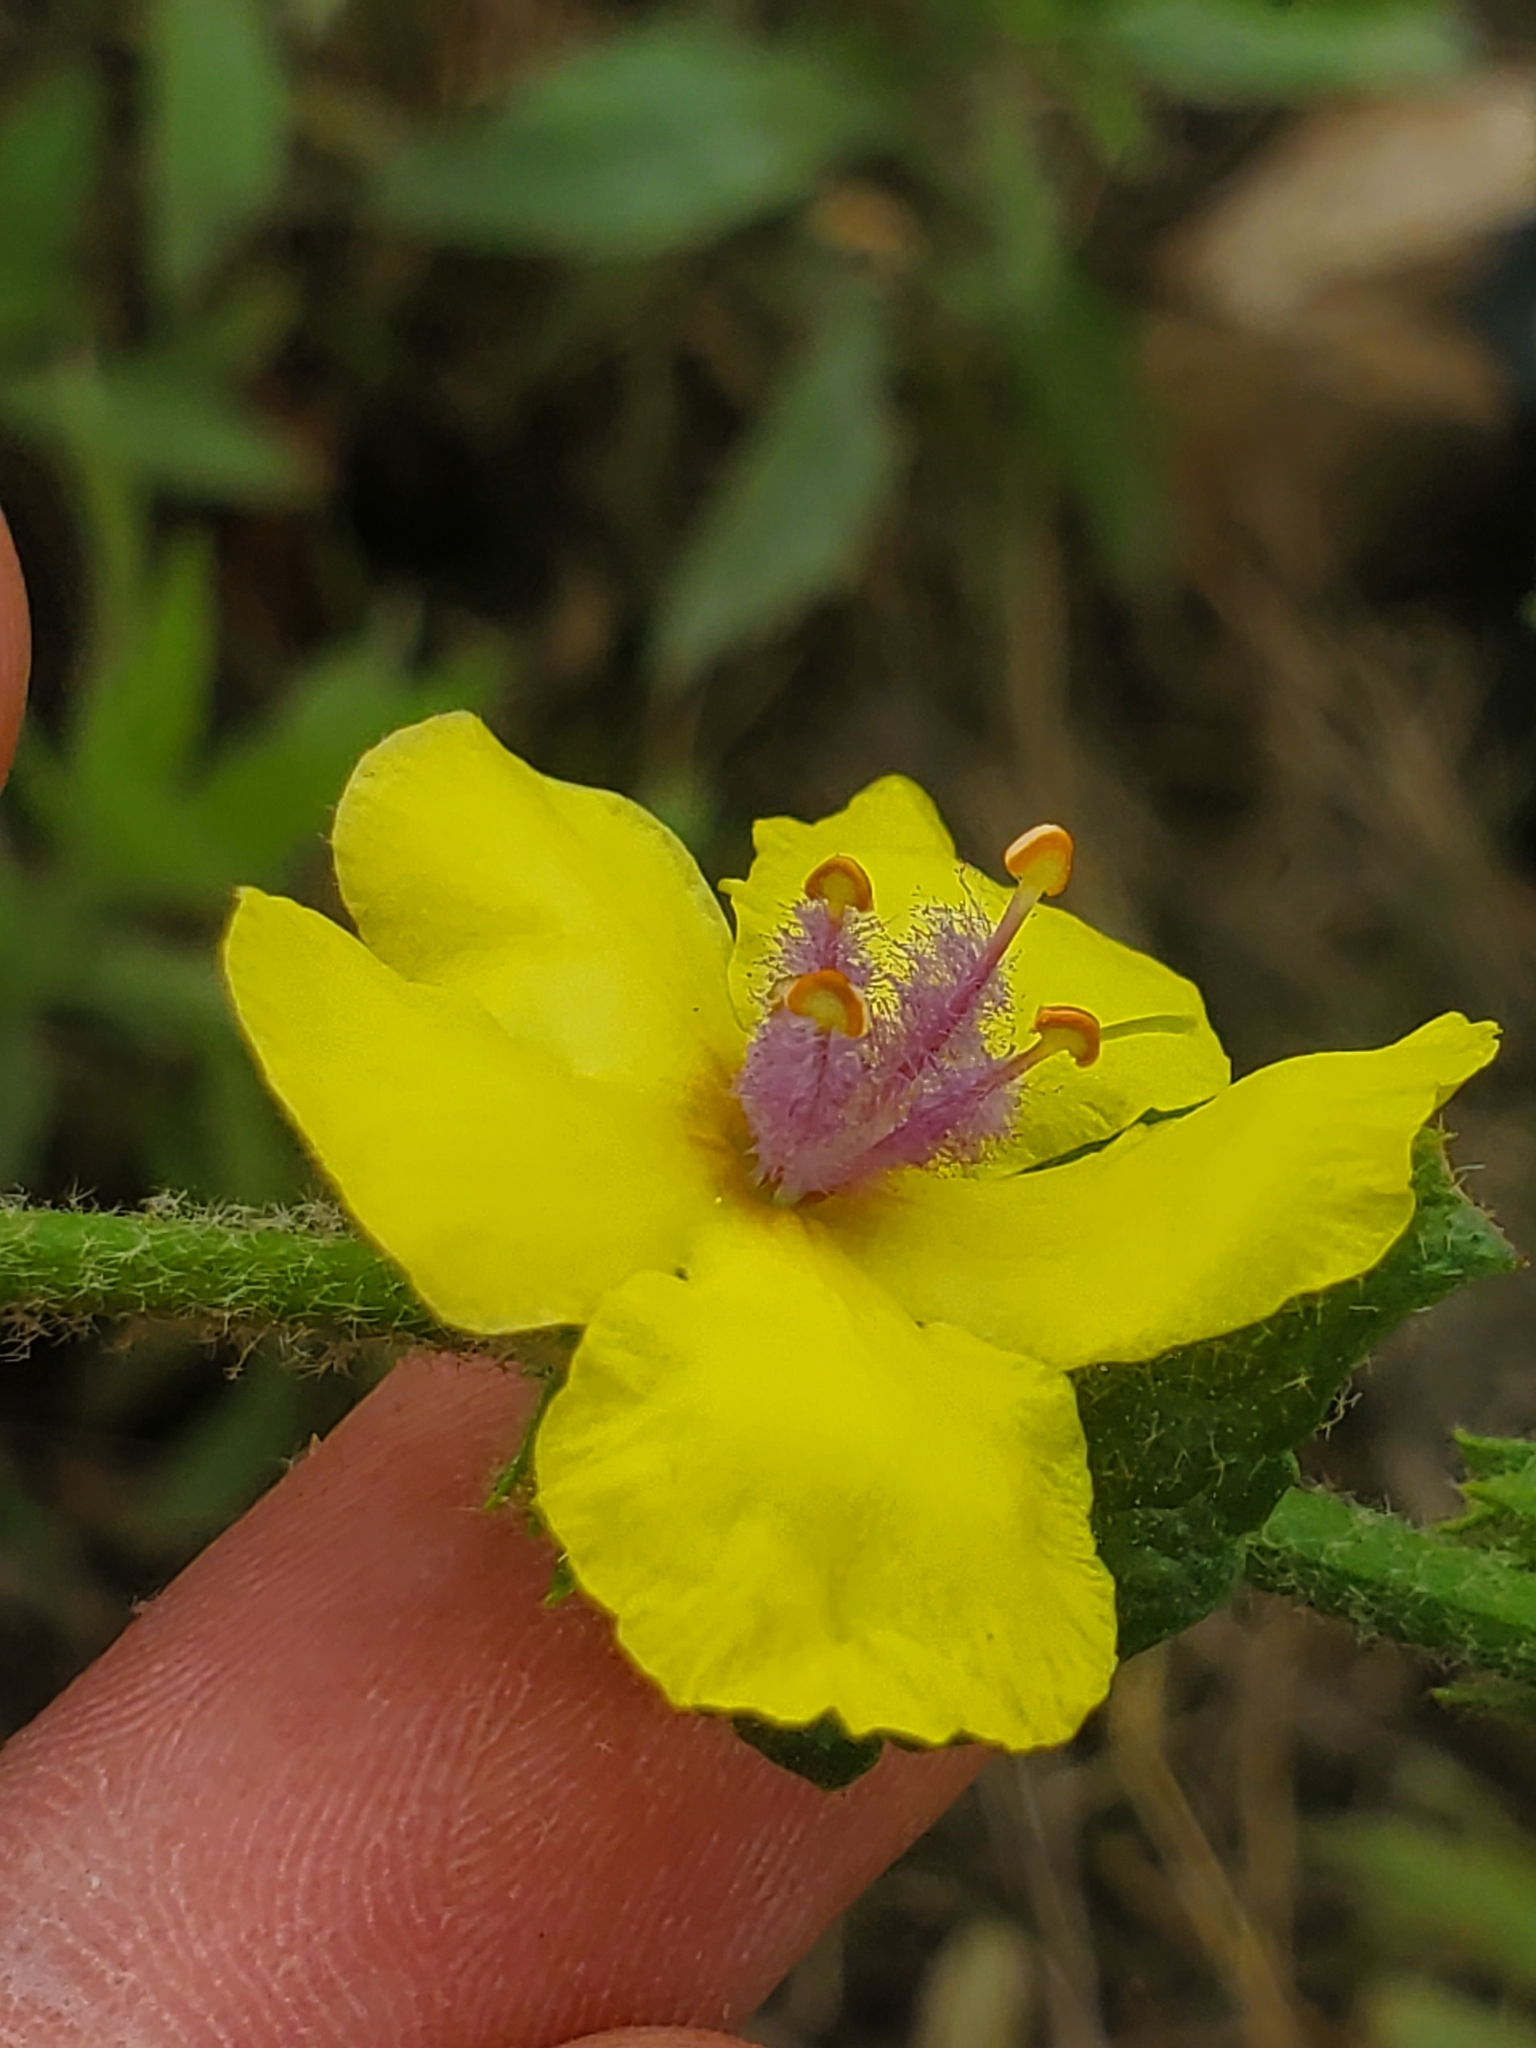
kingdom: Plantae
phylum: Tracheophyta
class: Magnoliopsida
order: Lamiales
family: Scrophulariaceae
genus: Verbascum
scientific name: Verbascum sinuatum
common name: Wavyleaf mullein
